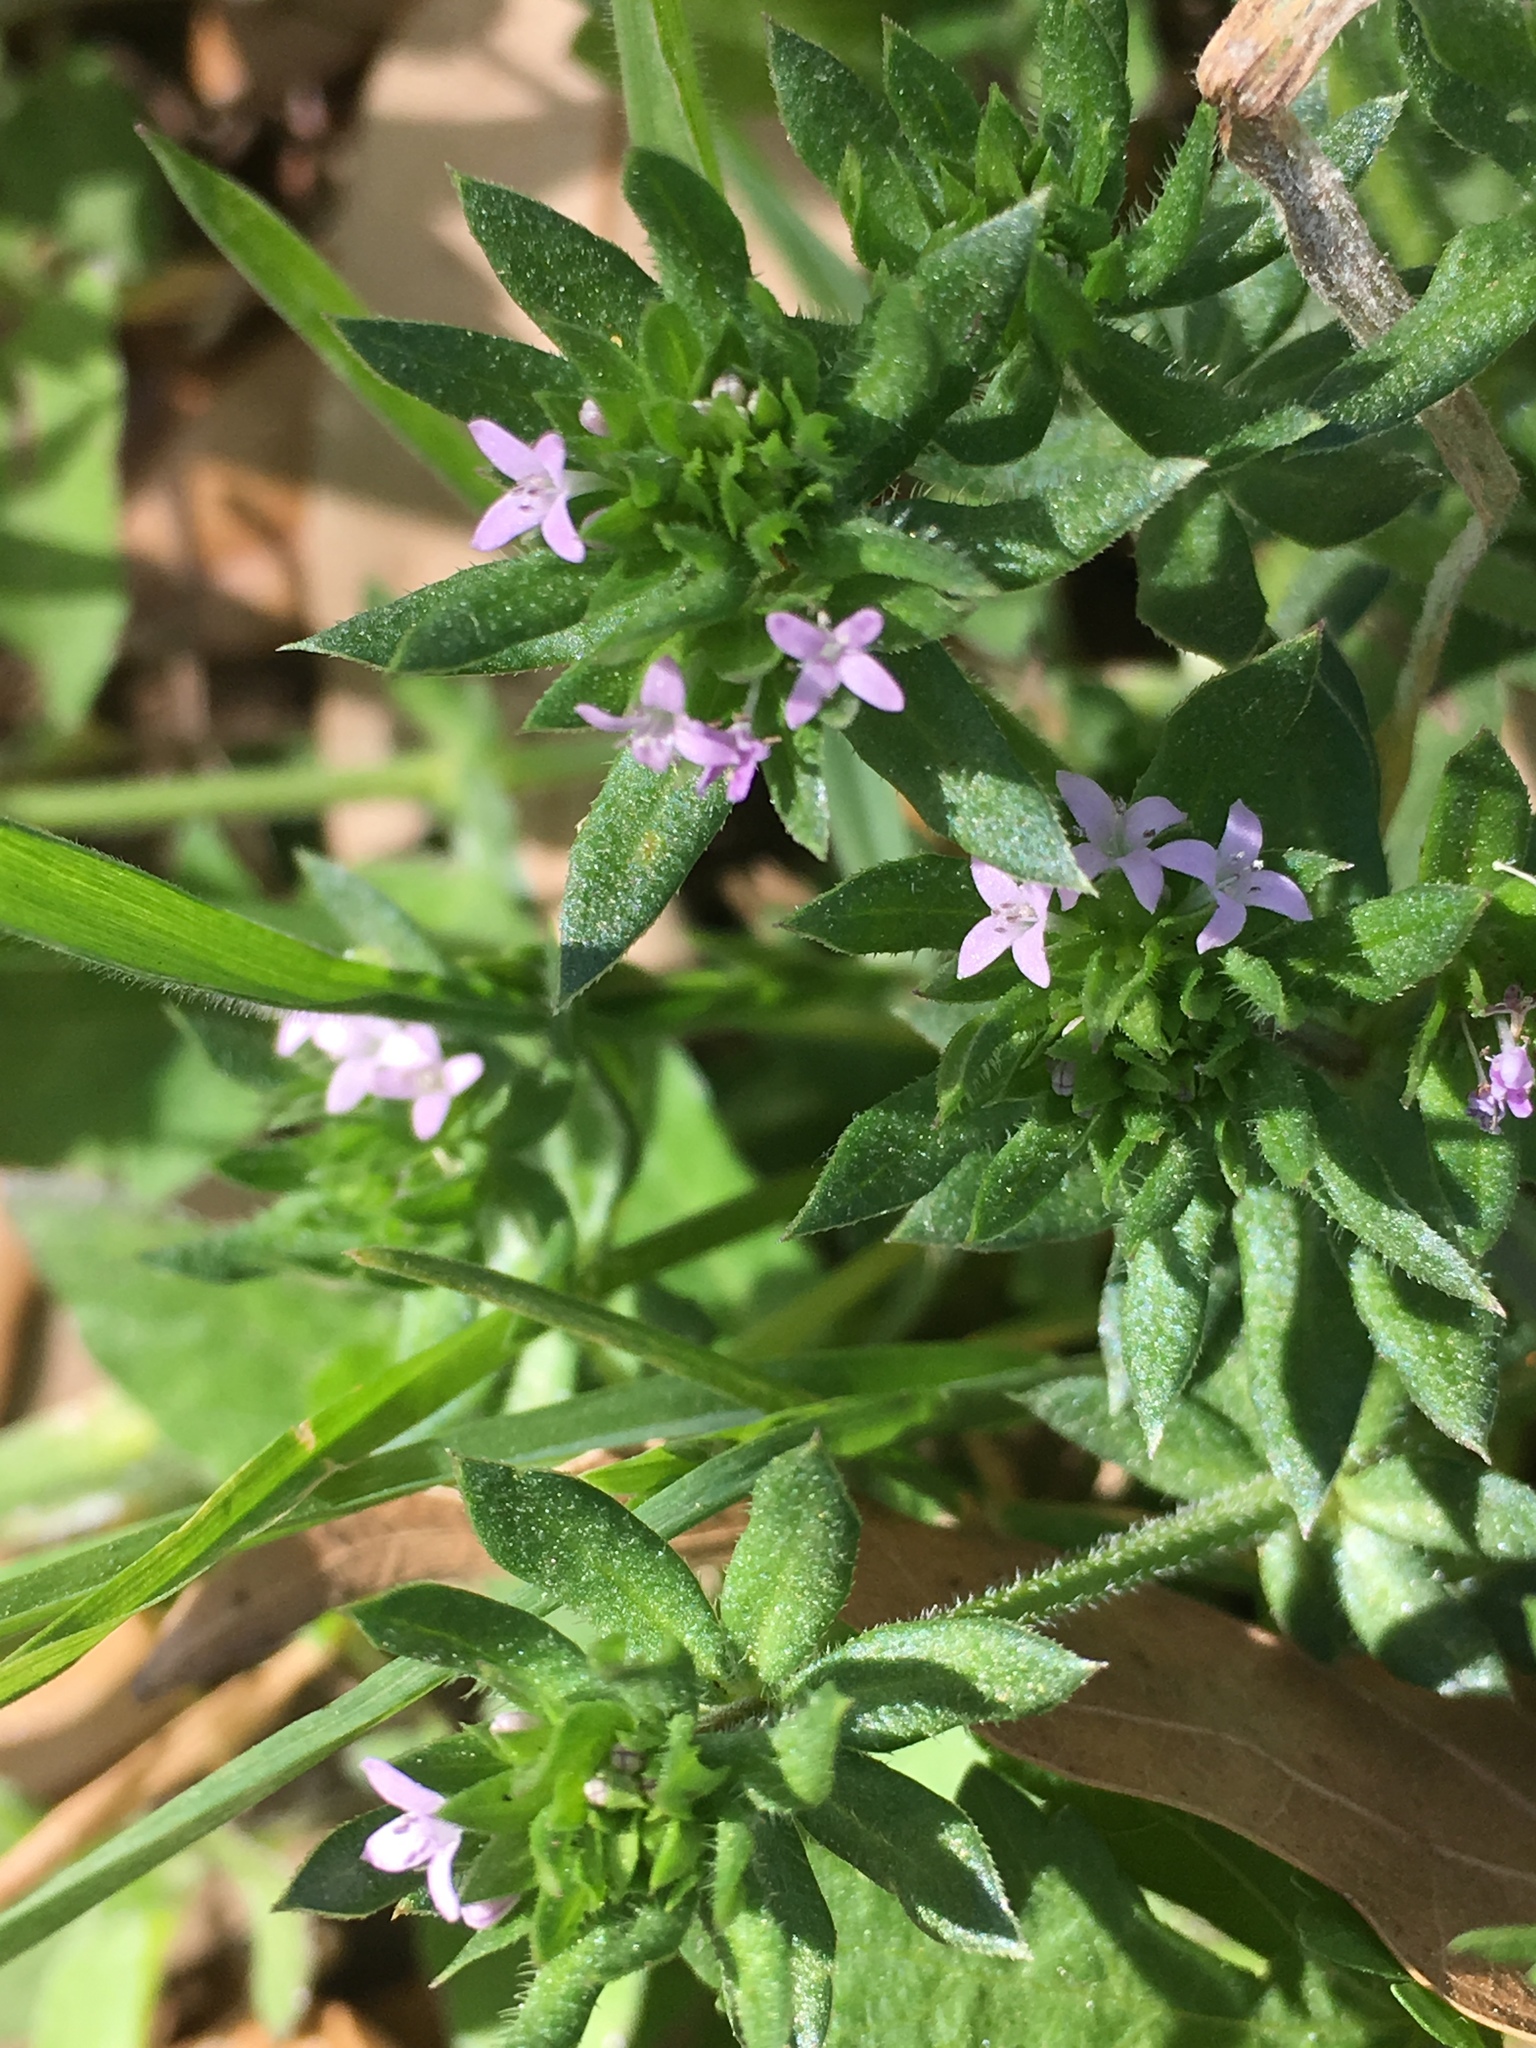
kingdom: Plantae
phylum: Tracheophyta
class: Magnoliopsida
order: Gentianales
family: Rubiaceae
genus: Sherardia
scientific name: Sherardia arvensis
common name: Field madder
